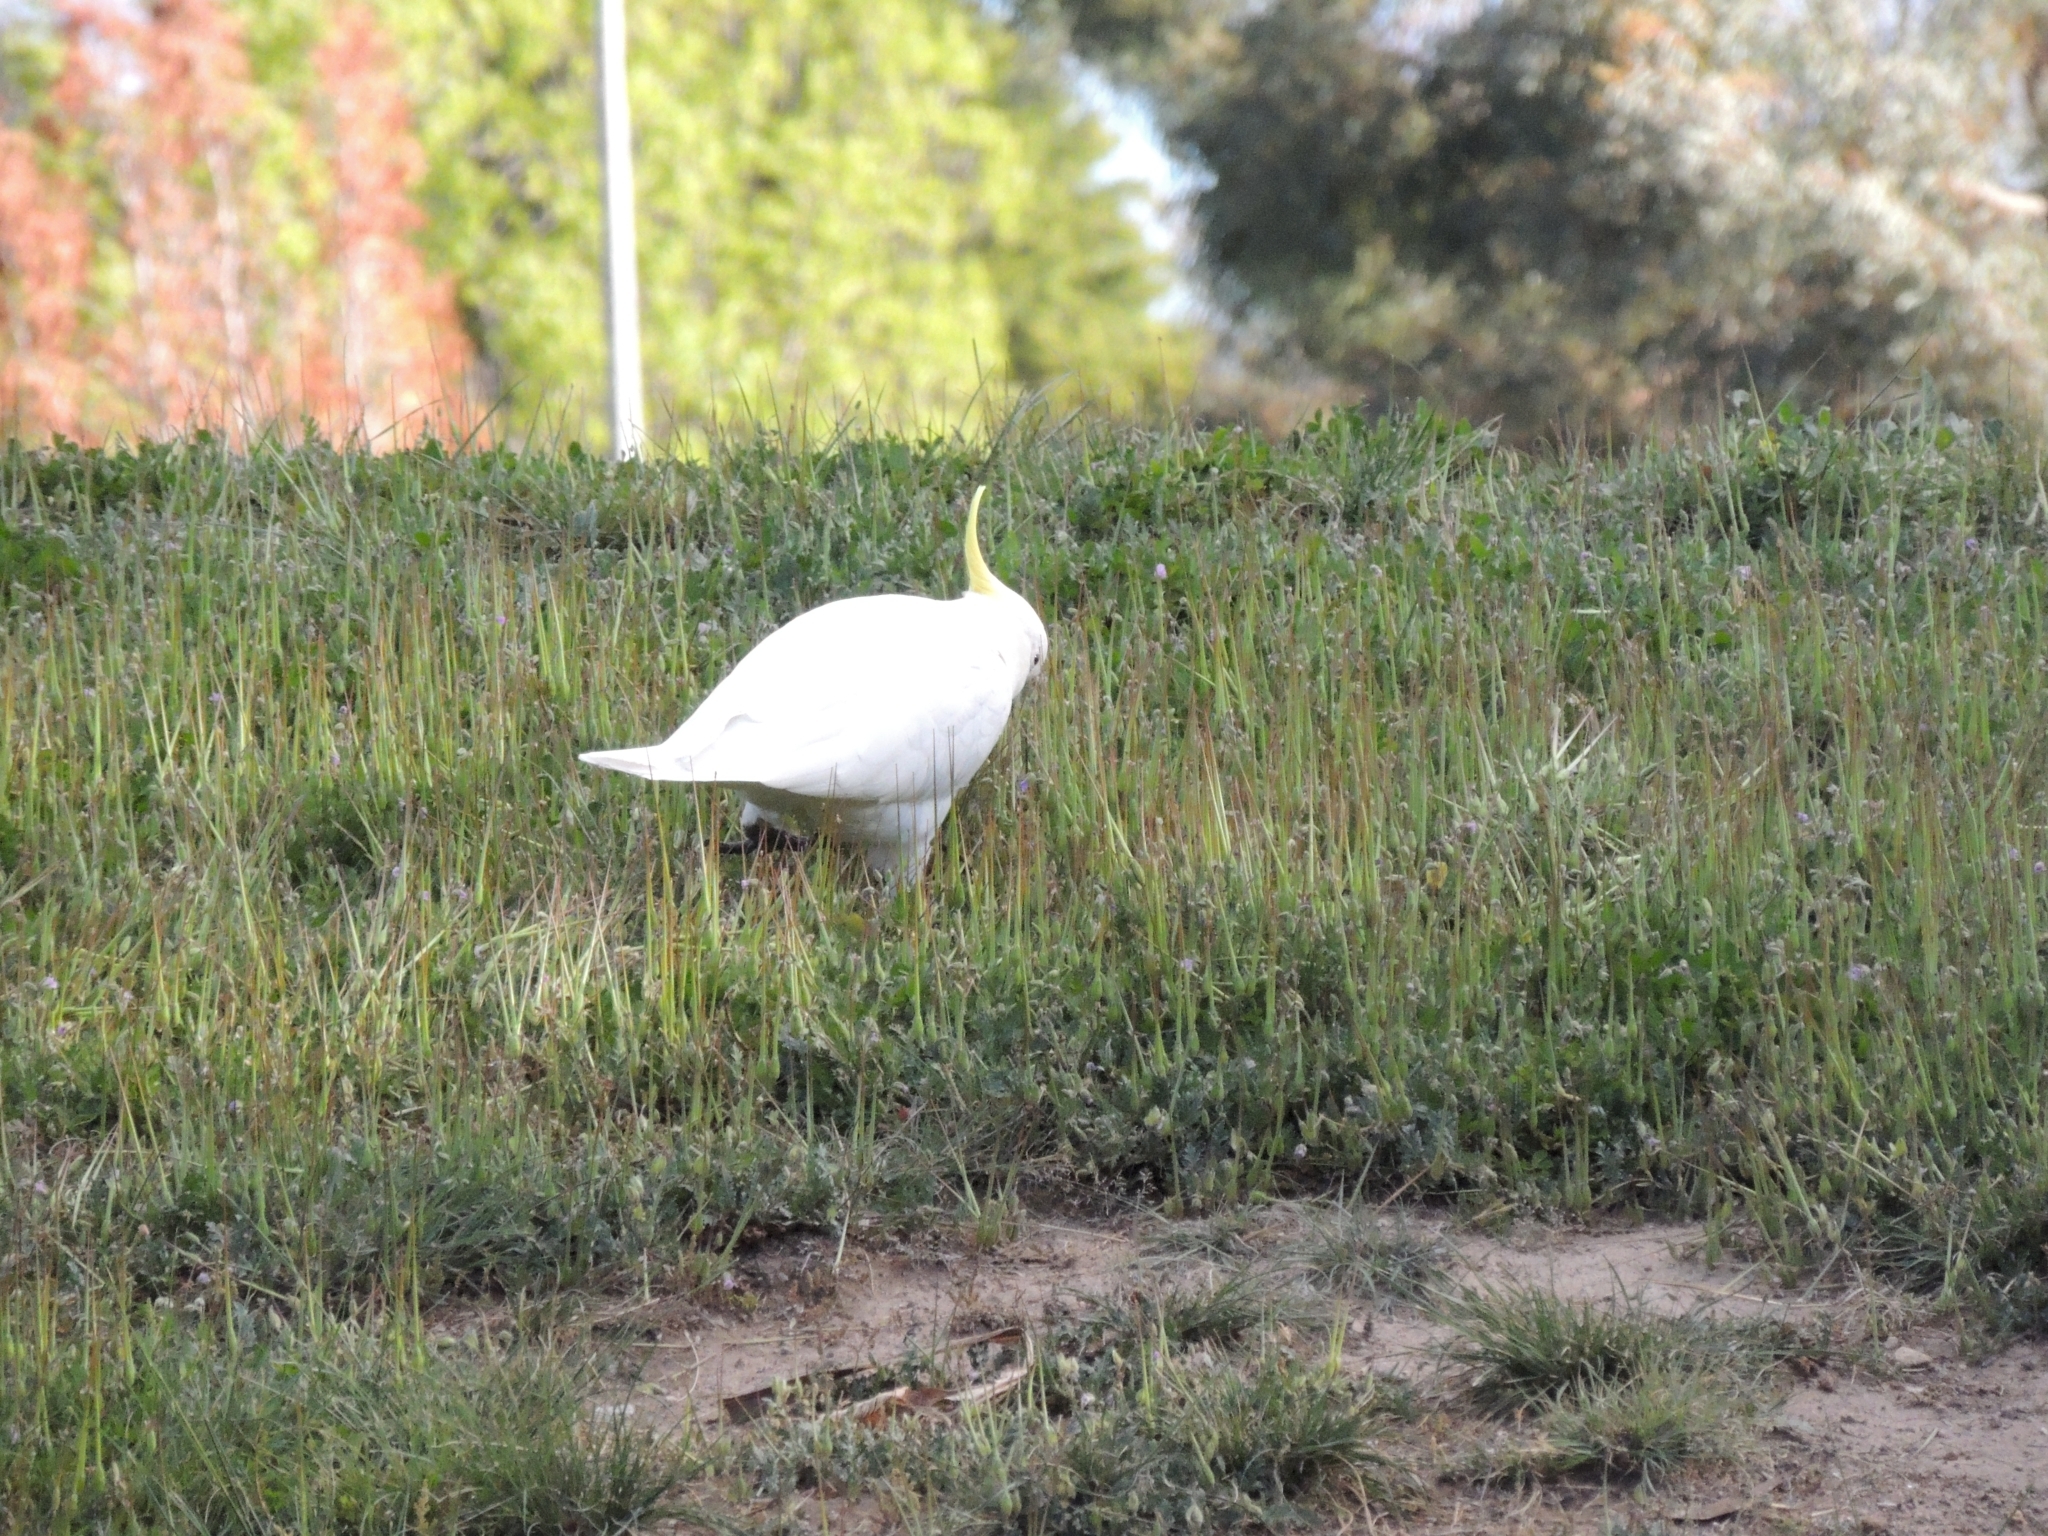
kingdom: Animalia
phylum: Chordata
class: Aves
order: Psittaciformes
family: Psittacidae
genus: Cacatua
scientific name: Cacatua galerita
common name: Sulphur-crested cockatoo
